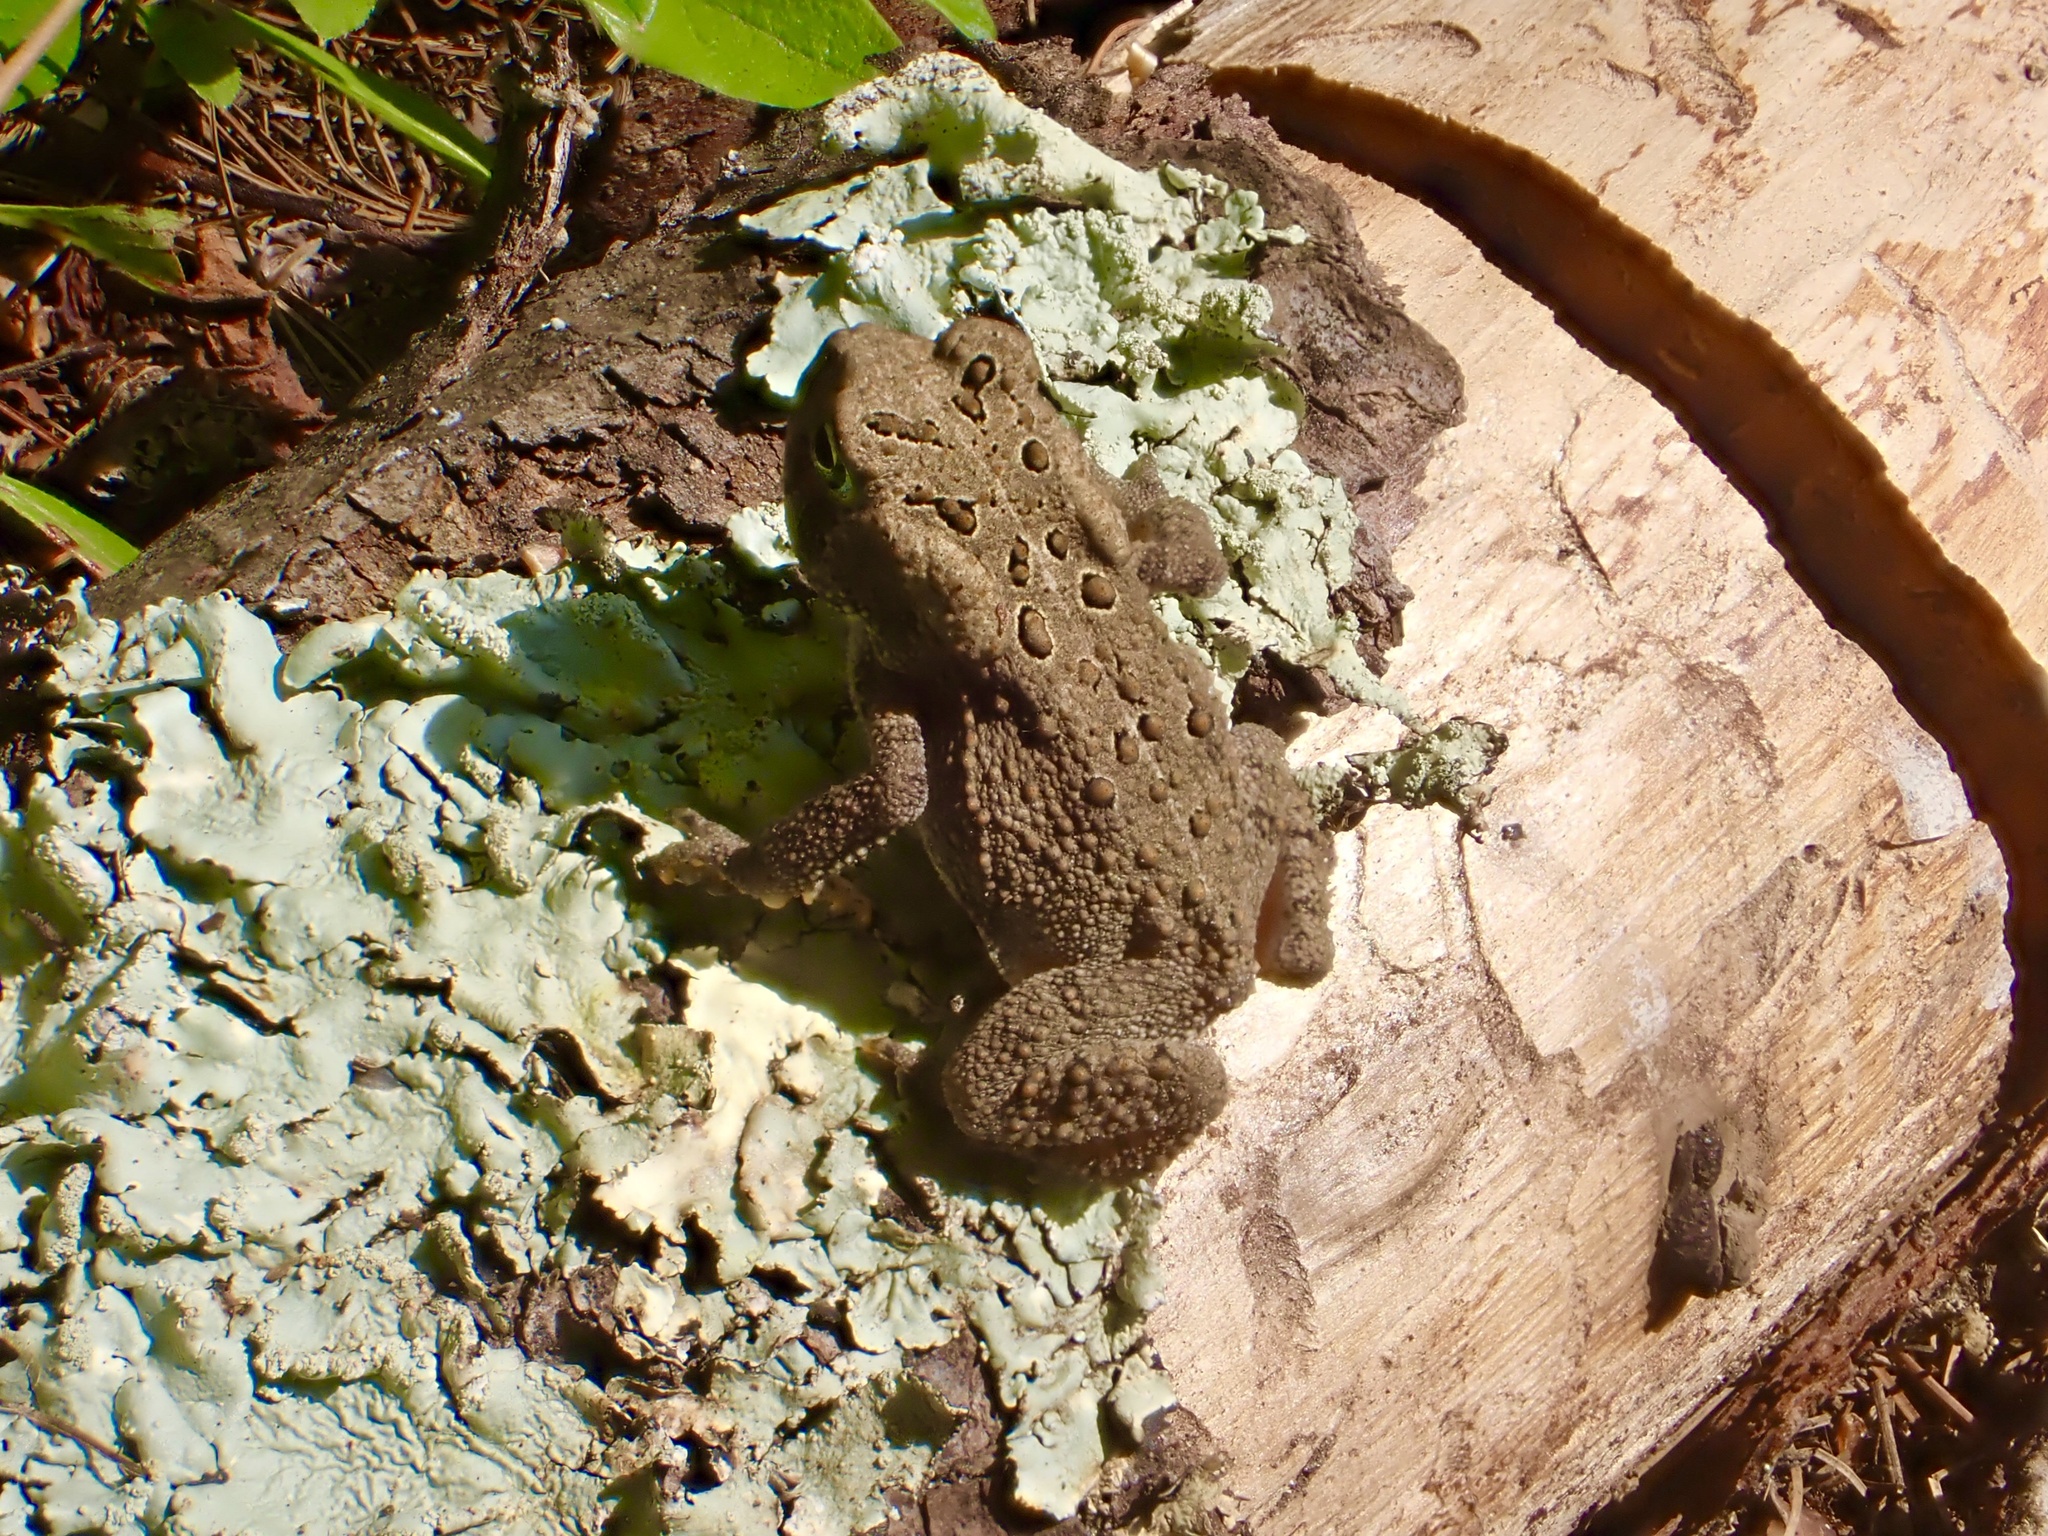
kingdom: Animalia
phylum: Chordata
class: Amphibia
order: Anura
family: Bufonidae
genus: Anaxyrus
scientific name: Anaxyrus americanus
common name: American toad
